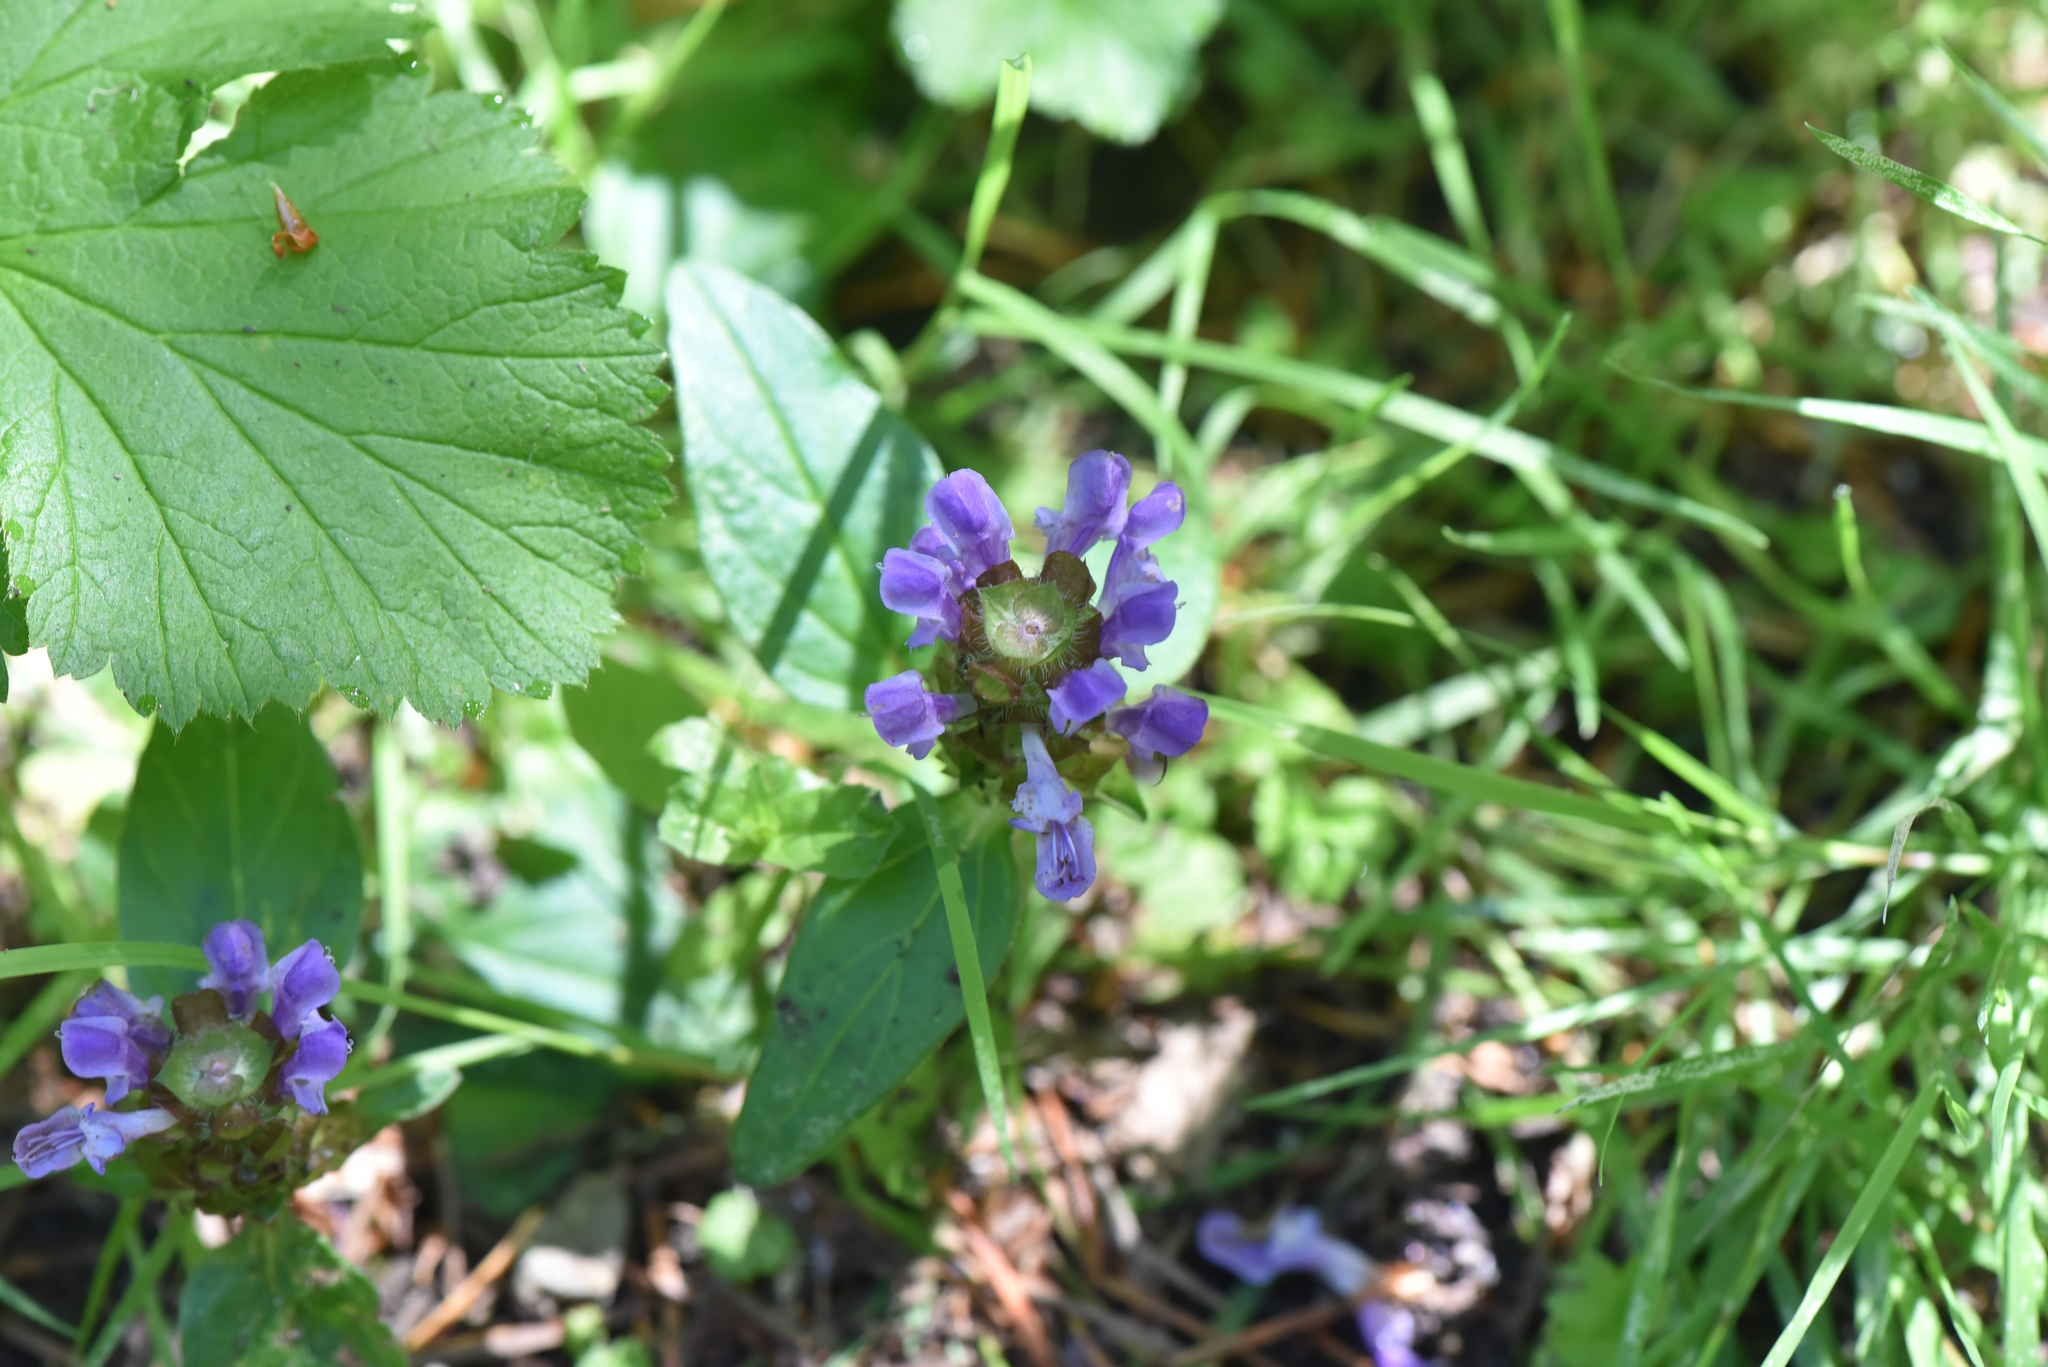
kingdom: Plantae
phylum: Tracheophyta
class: Magnoliopsida
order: Lamiales
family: Lamiaceae
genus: Prunella
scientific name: Prunella vulgaris
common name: Heal-all
